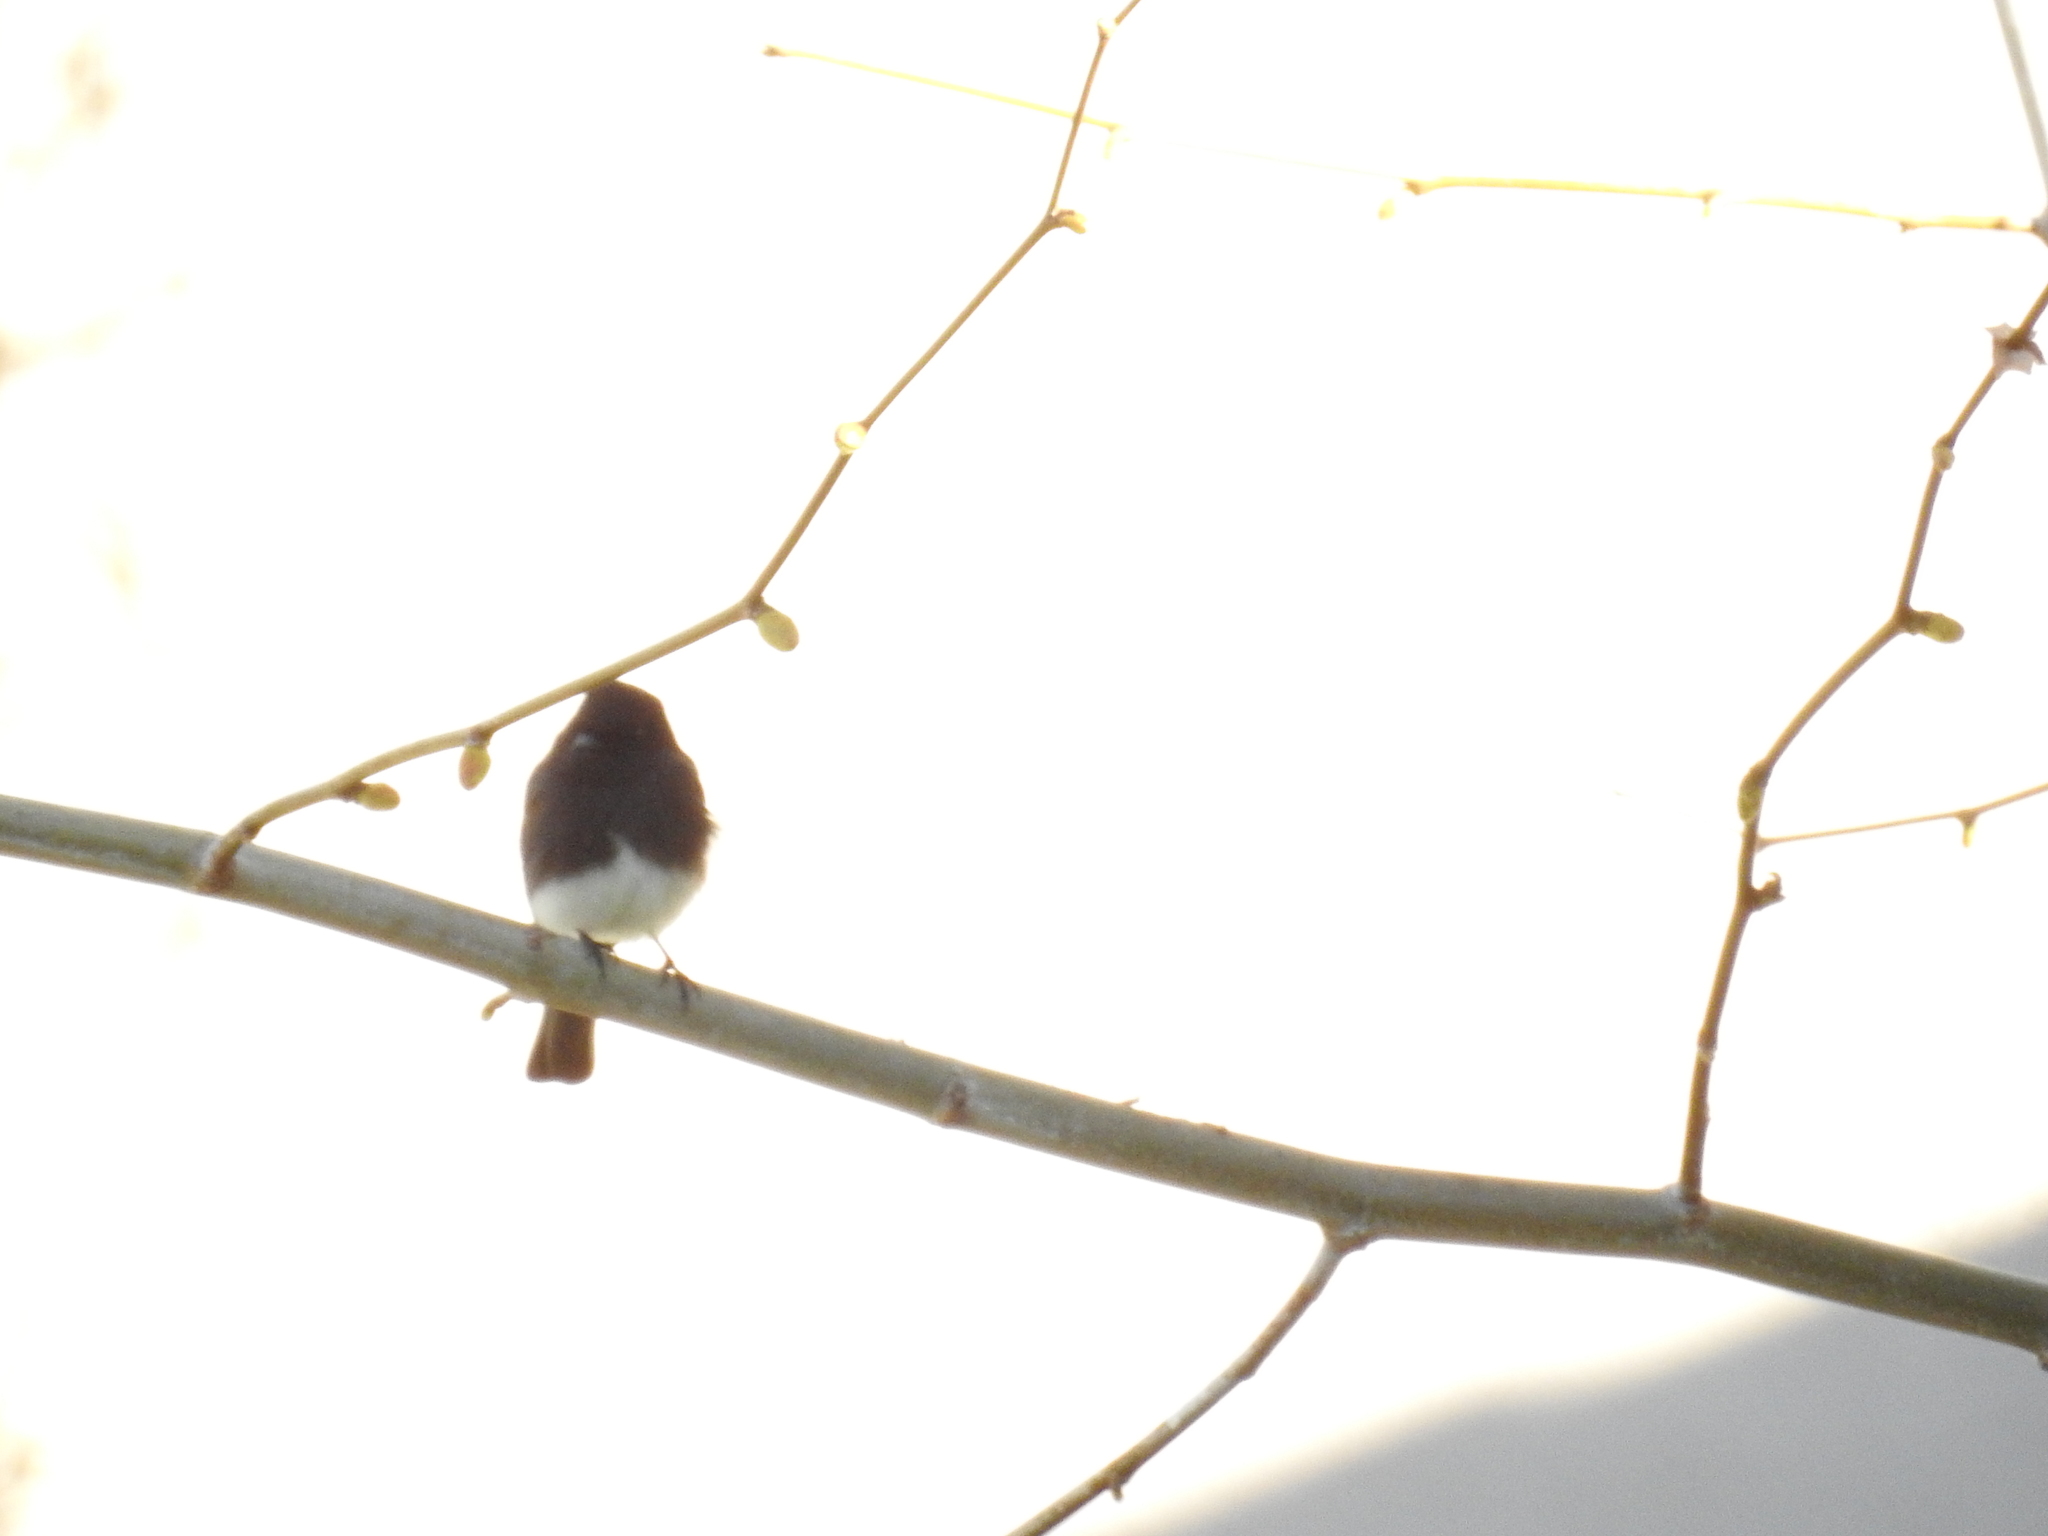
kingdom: Animalia
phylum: Chordata
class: Aves
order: Passeriformes
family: Tyrannidae
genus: Sayornis
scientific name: Sayornis nigricans
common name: Black phoebe
